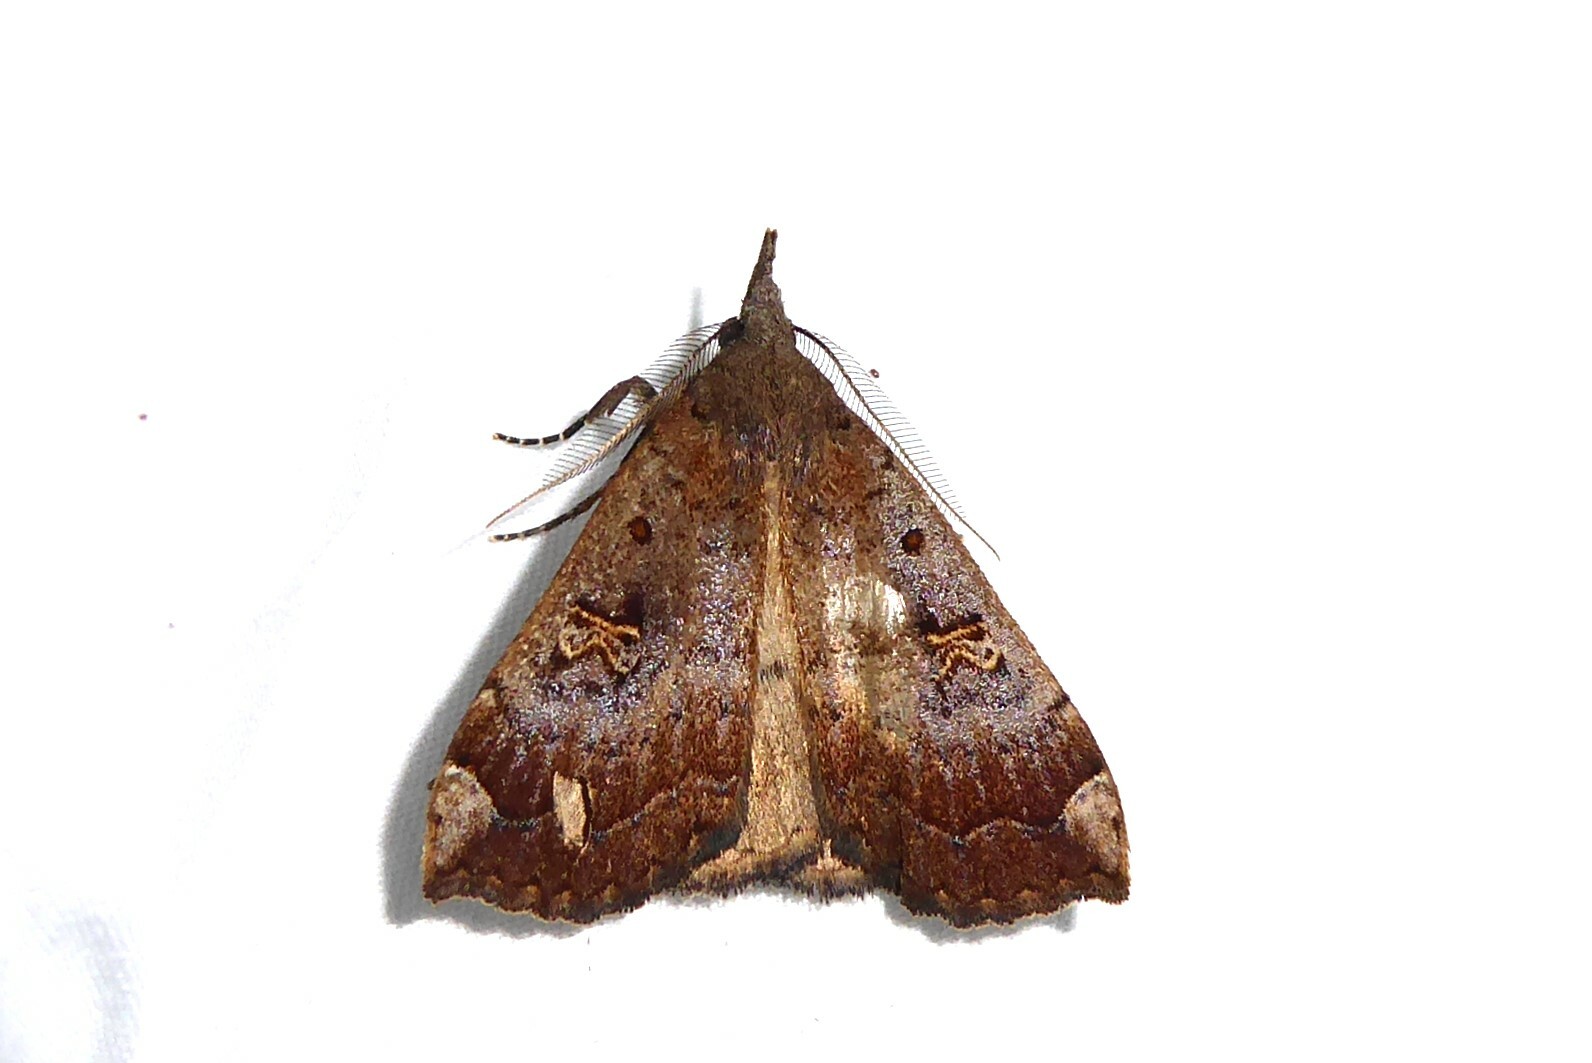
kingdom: Animalia
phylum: Arthropoda
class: Insecta
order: Lepidoptera
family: Erebidae
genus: Rhapsa
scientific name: Rhapsa scotosialis
